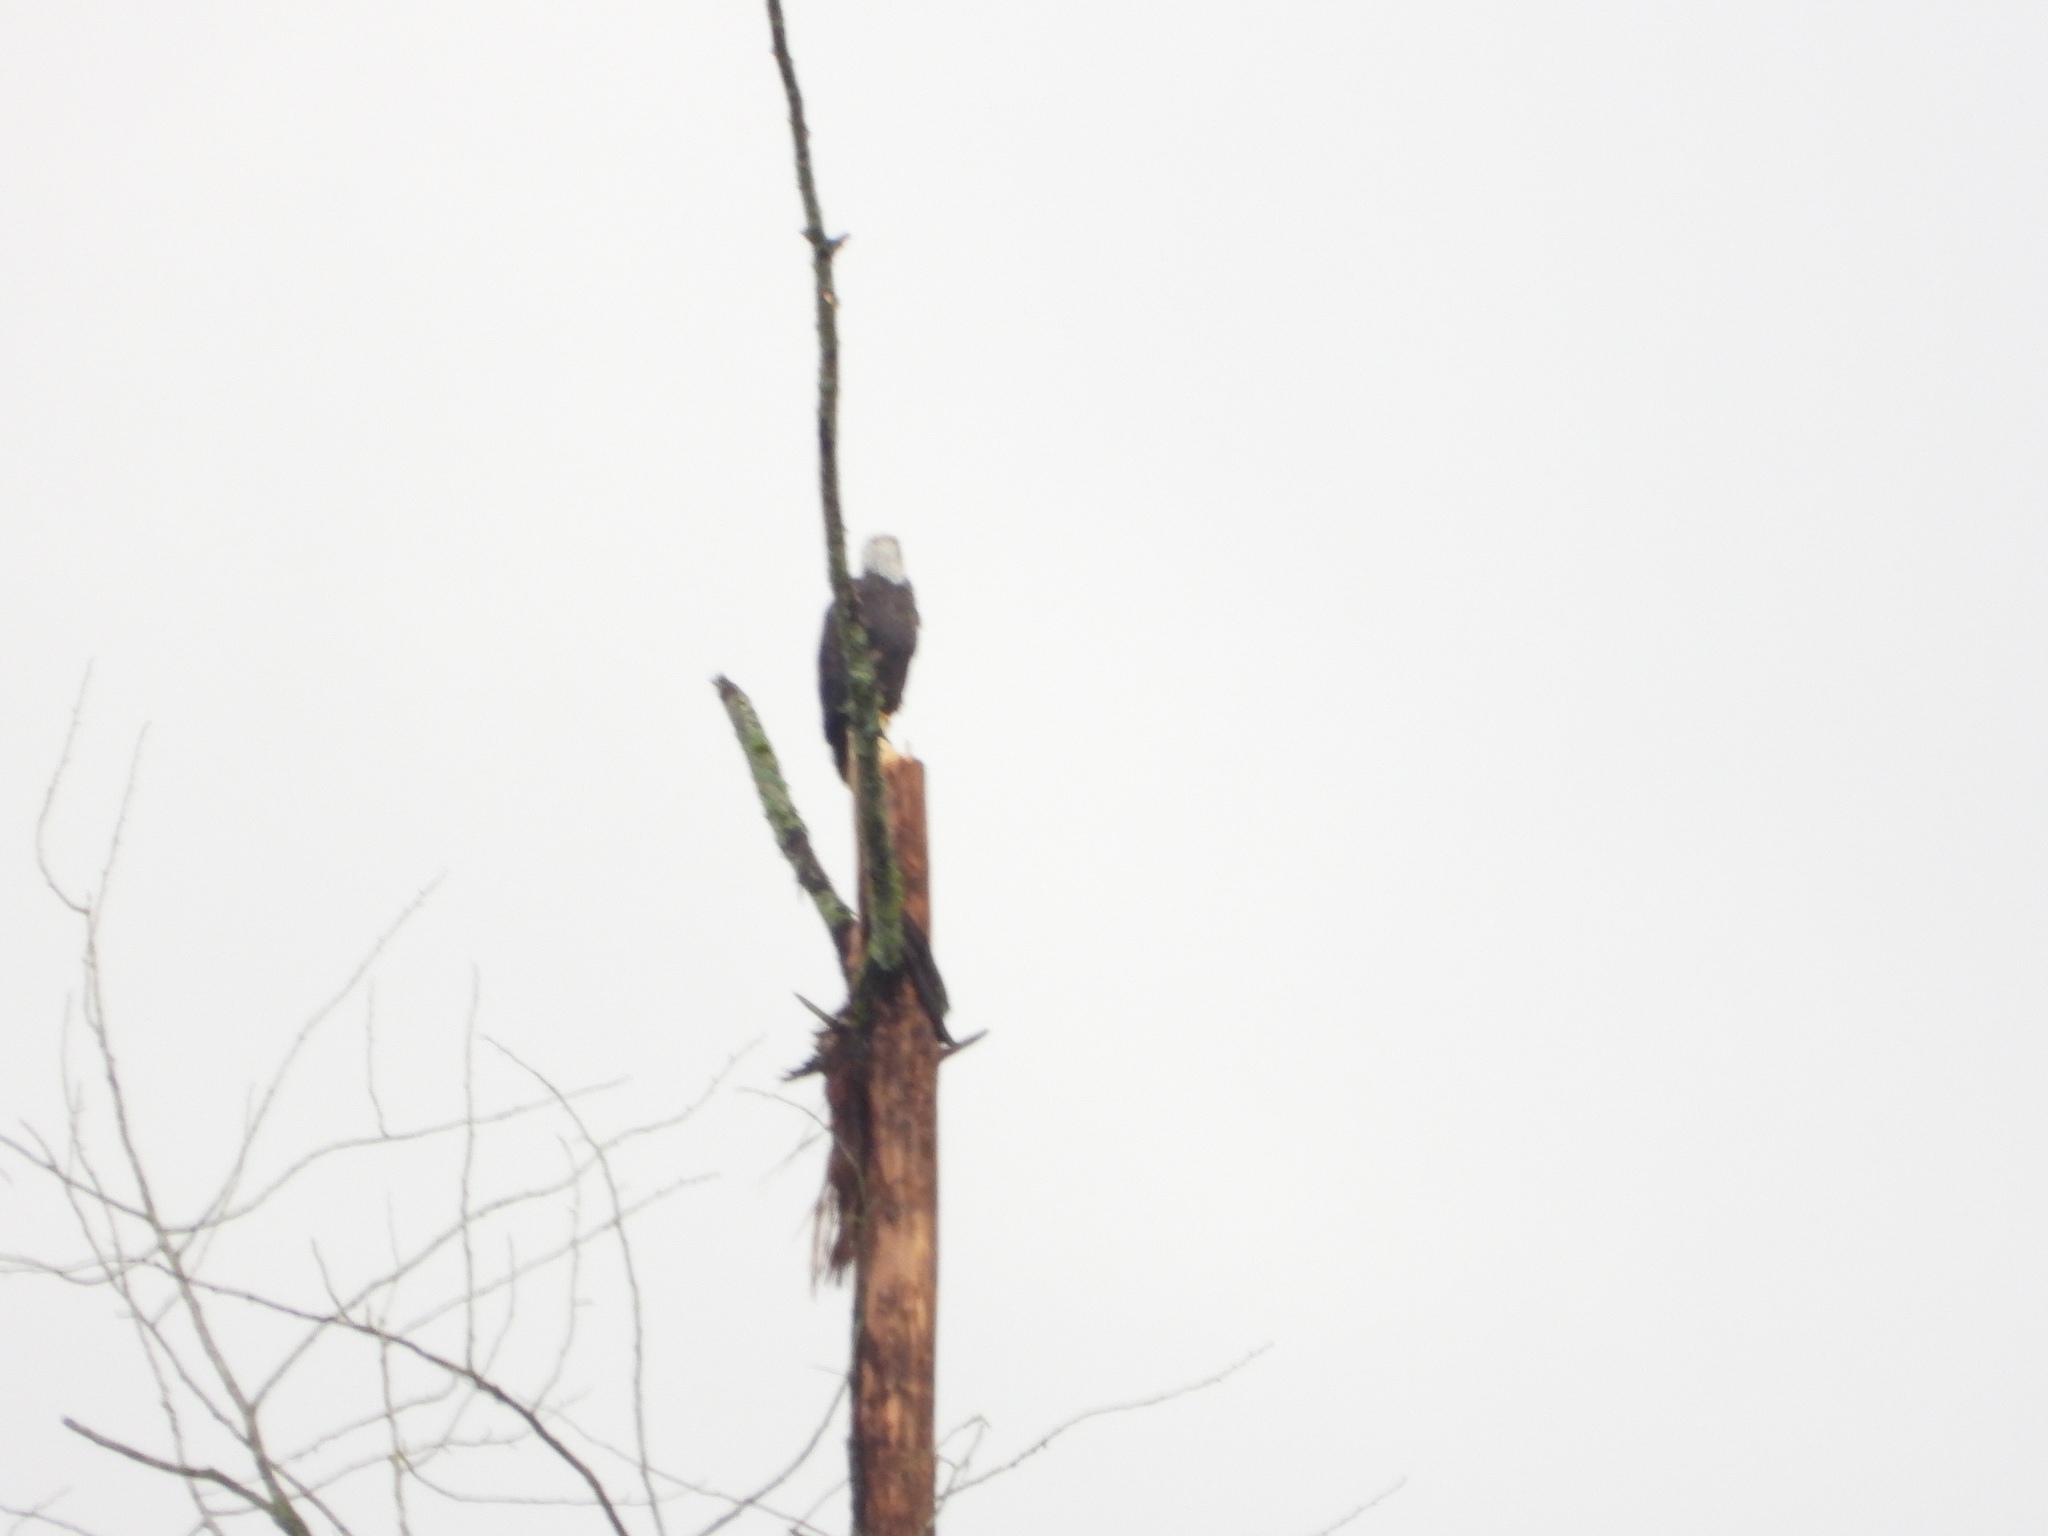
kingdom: Animalia
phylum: Chordata
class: Aves
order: Accipitriformes
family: Accipitridae
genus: Haliaeetus
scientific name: Haliaeetus leucocephalus
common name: Bald eagle
